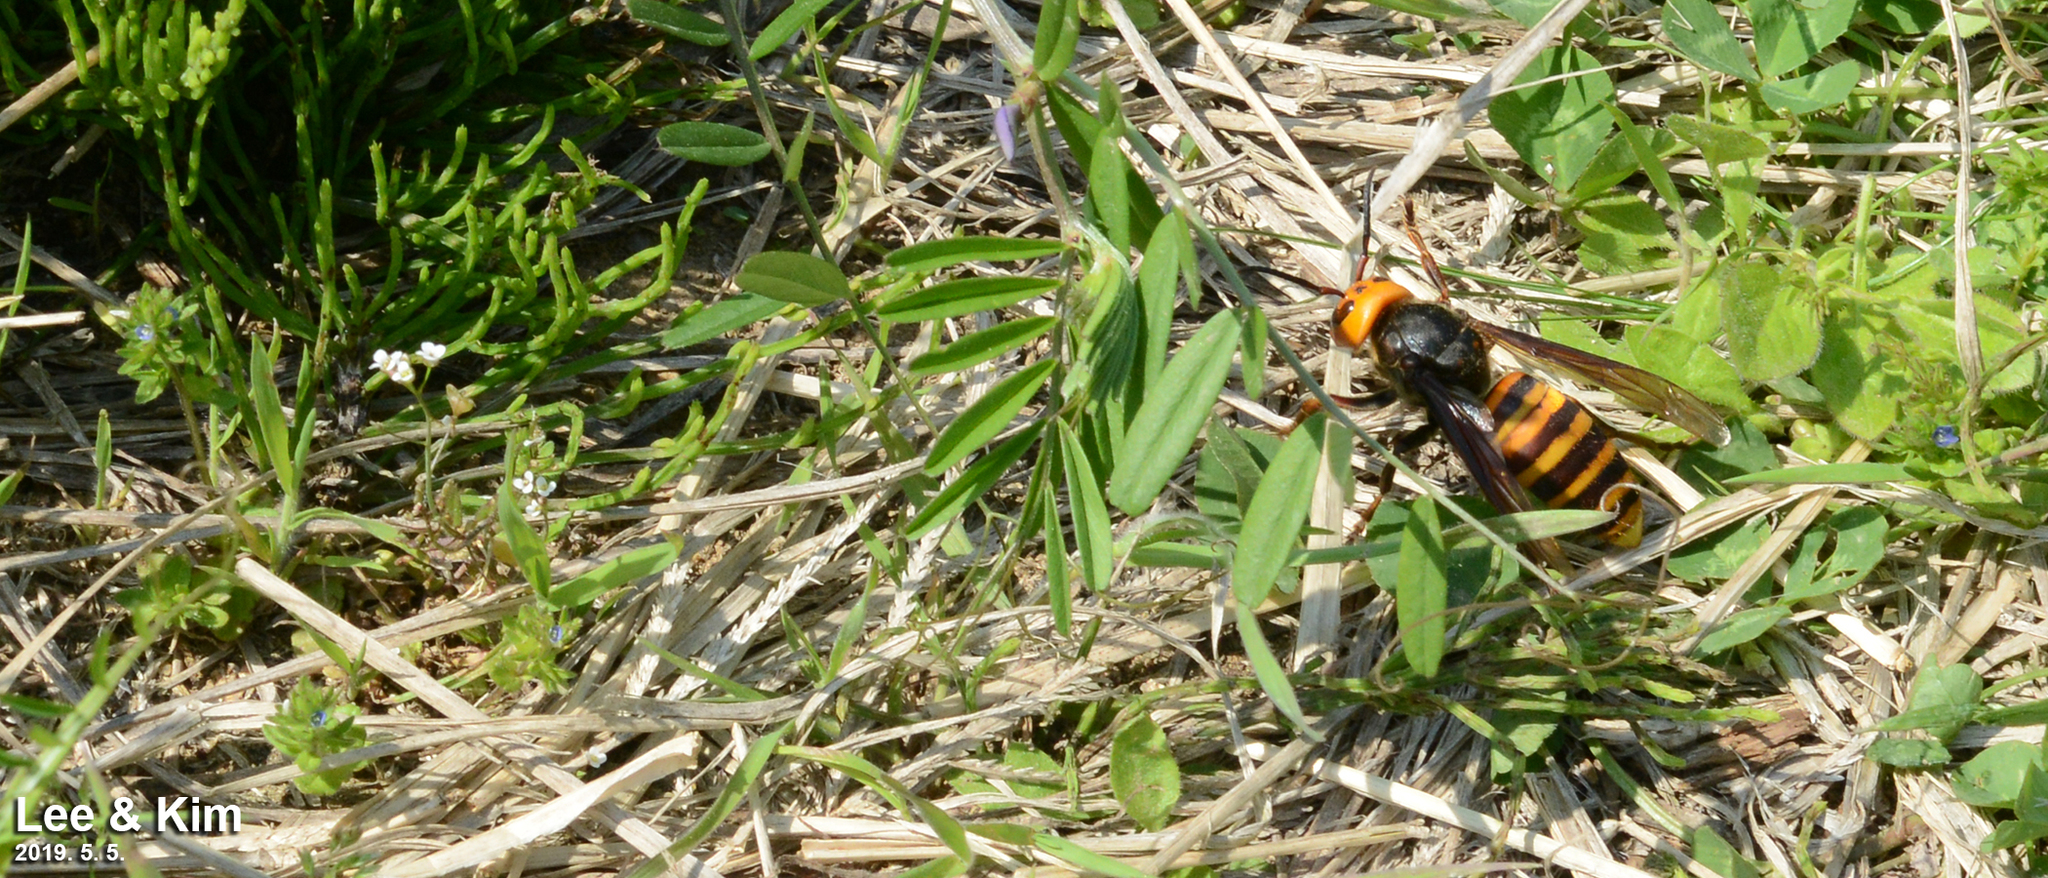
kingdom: Animalia
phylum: Arthropoda
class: Insecta
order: Hymenoptera
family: Vespidae
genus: Vespa
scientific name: Vespa mandarinia
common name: Asian giant hornet
